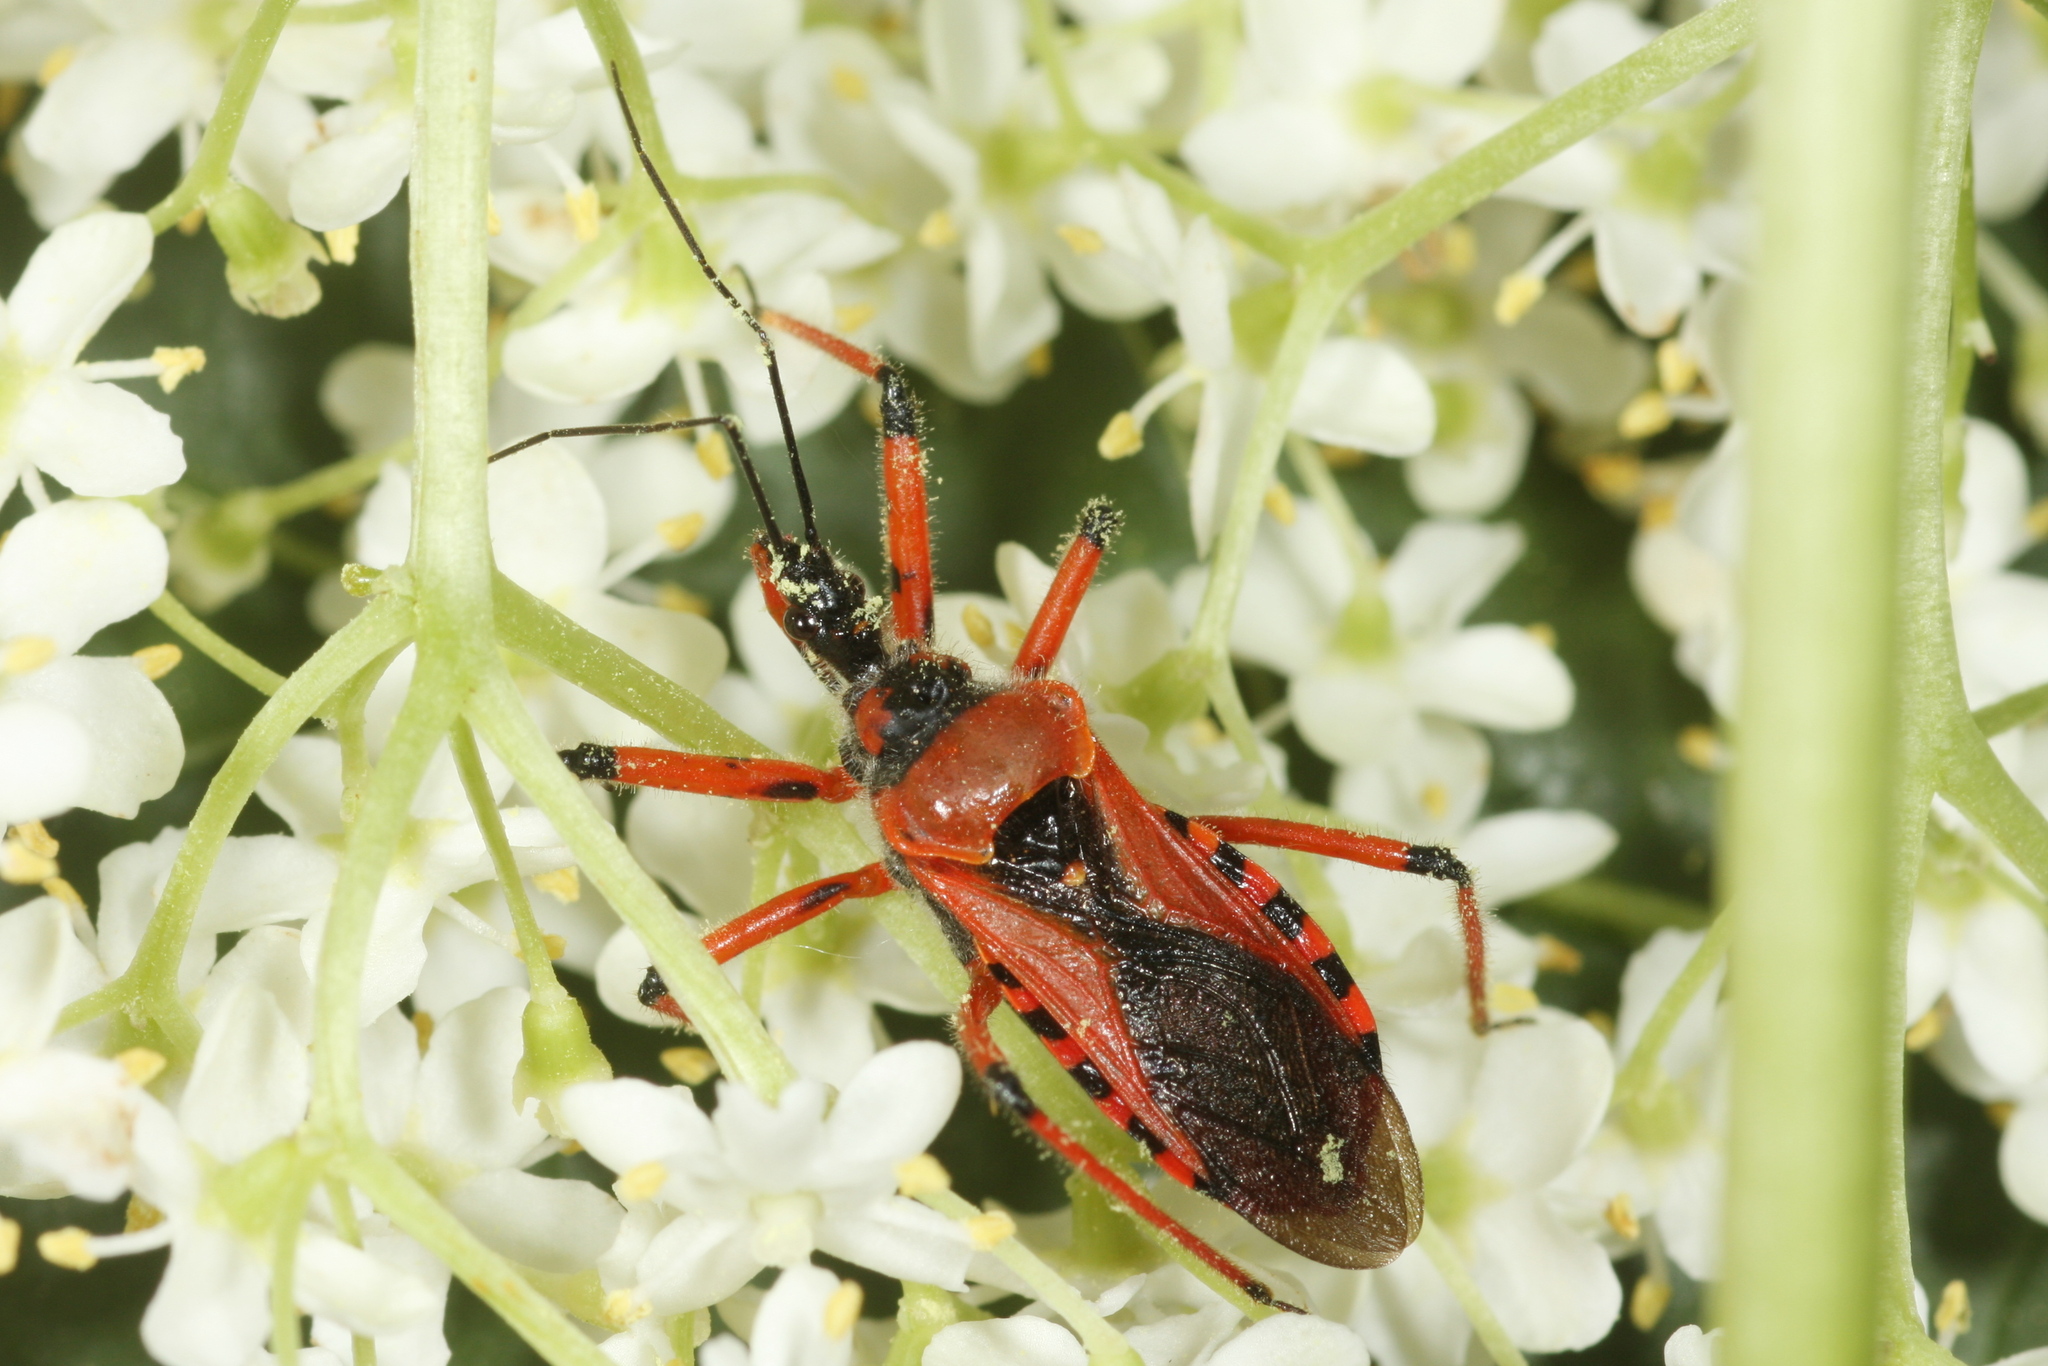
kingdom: Animalia
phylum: Arthropoda
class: Insecta
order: Hemiptera
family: Reduviidae
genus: Rhynocoris
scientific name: Rhynocoris iracundus
